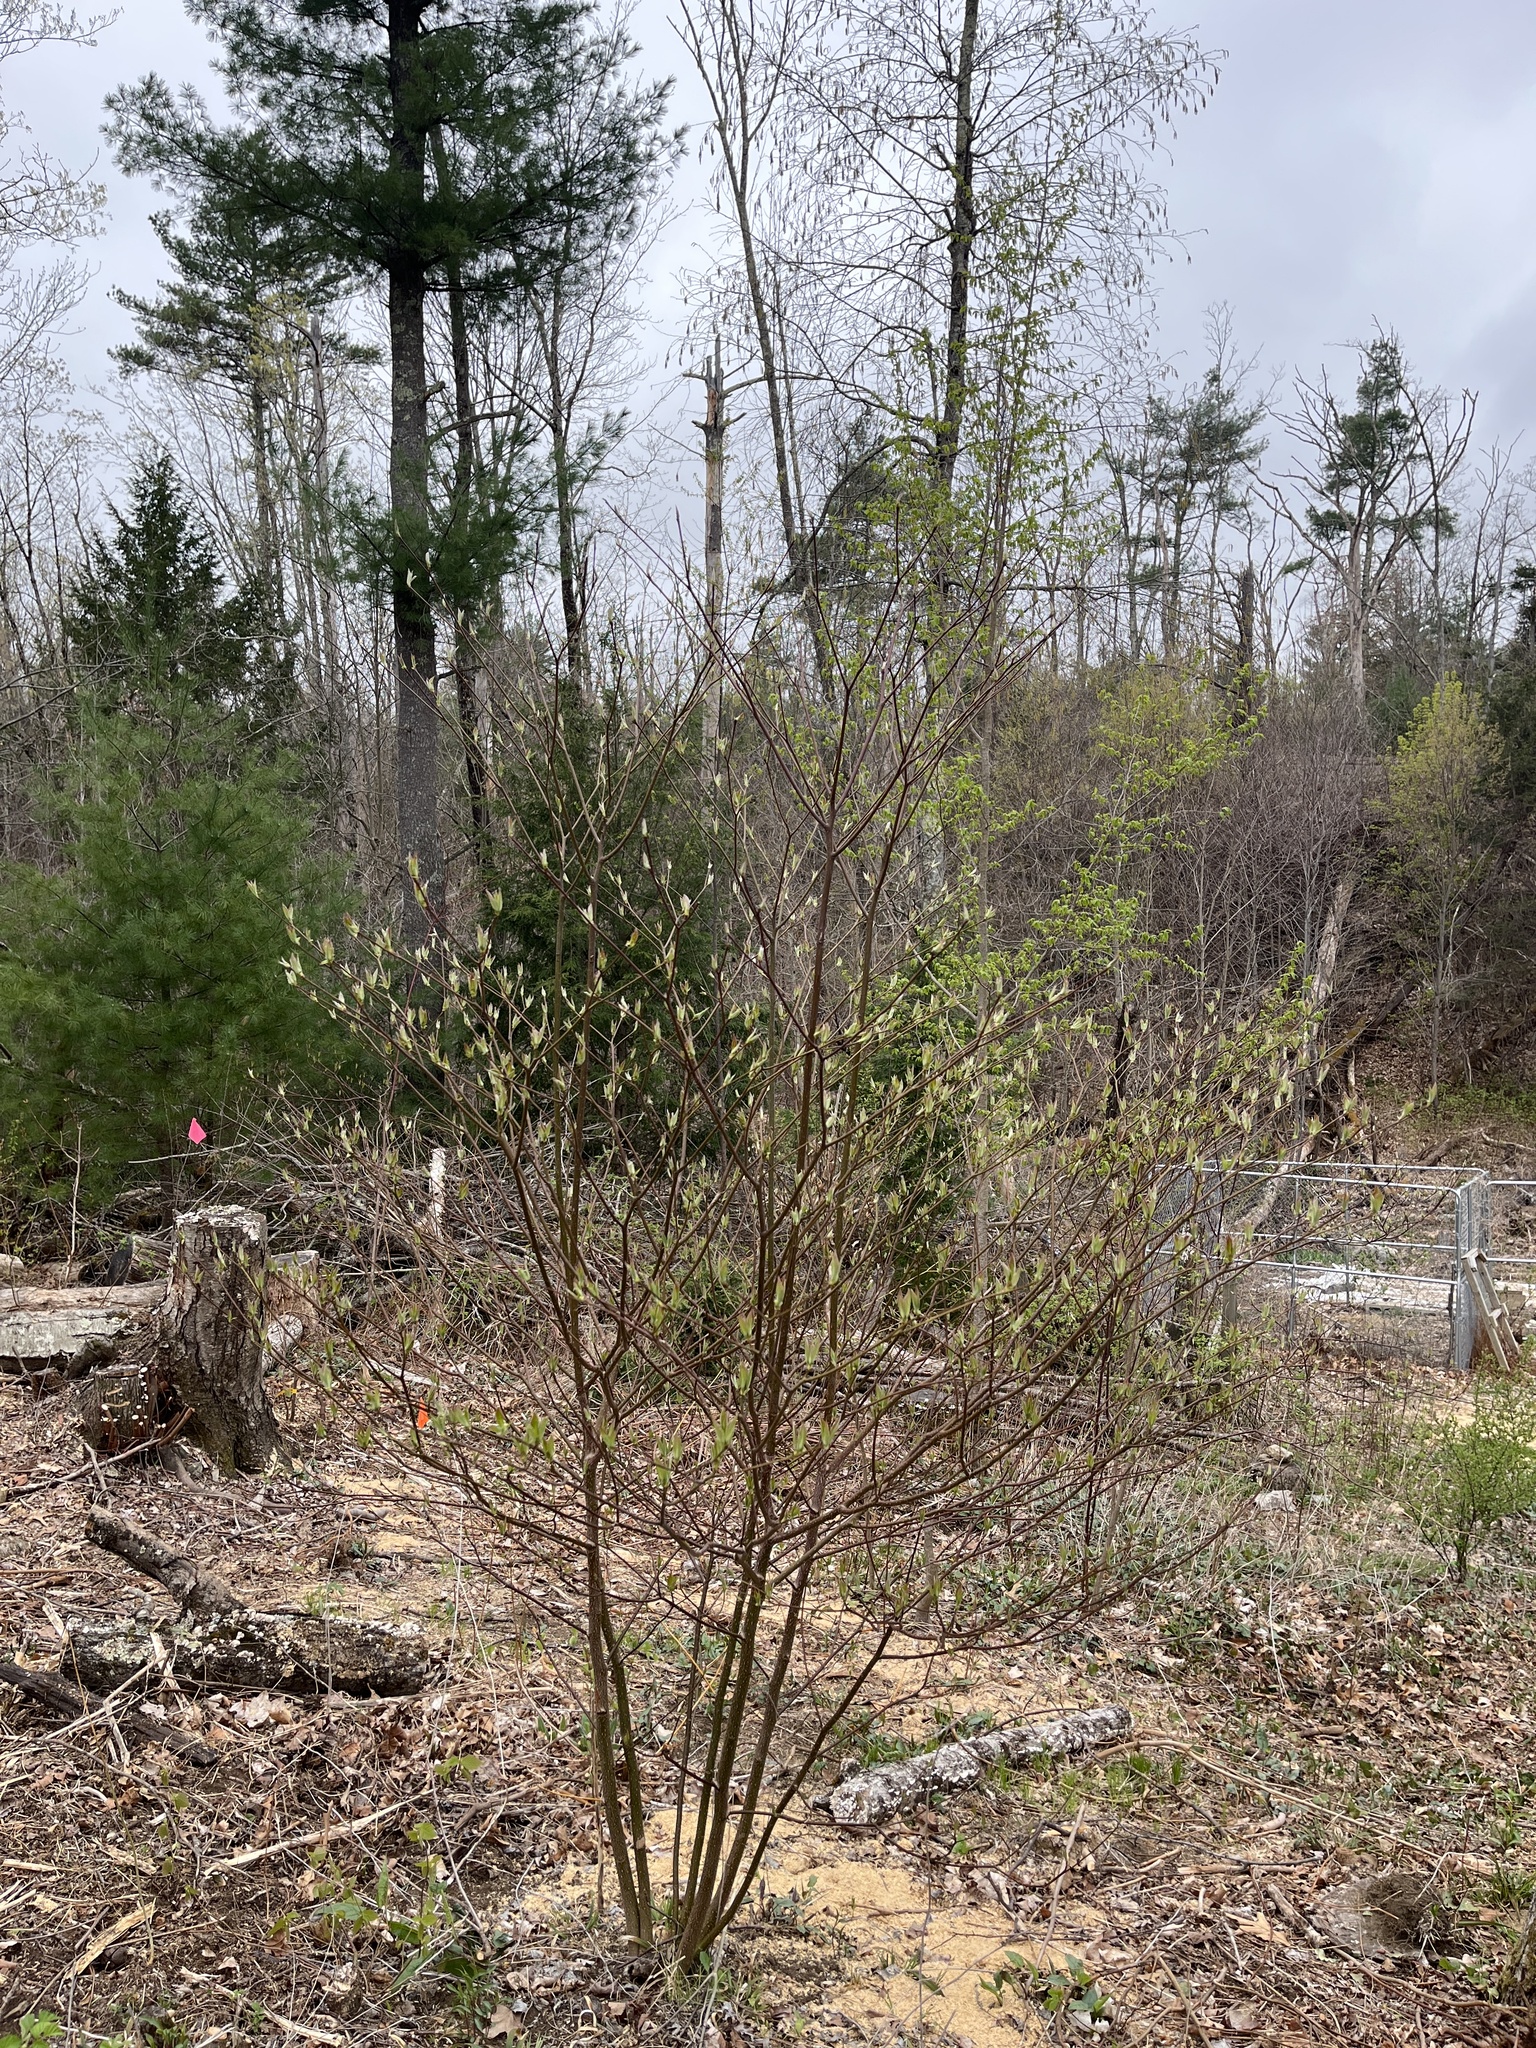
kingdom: Plantae
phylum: Tracheophyta
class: Magnoliopsida
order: Cornales
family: Cornaceae
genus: Cornus
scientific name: Cornus alternifolia
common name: Pagoda dogwood
